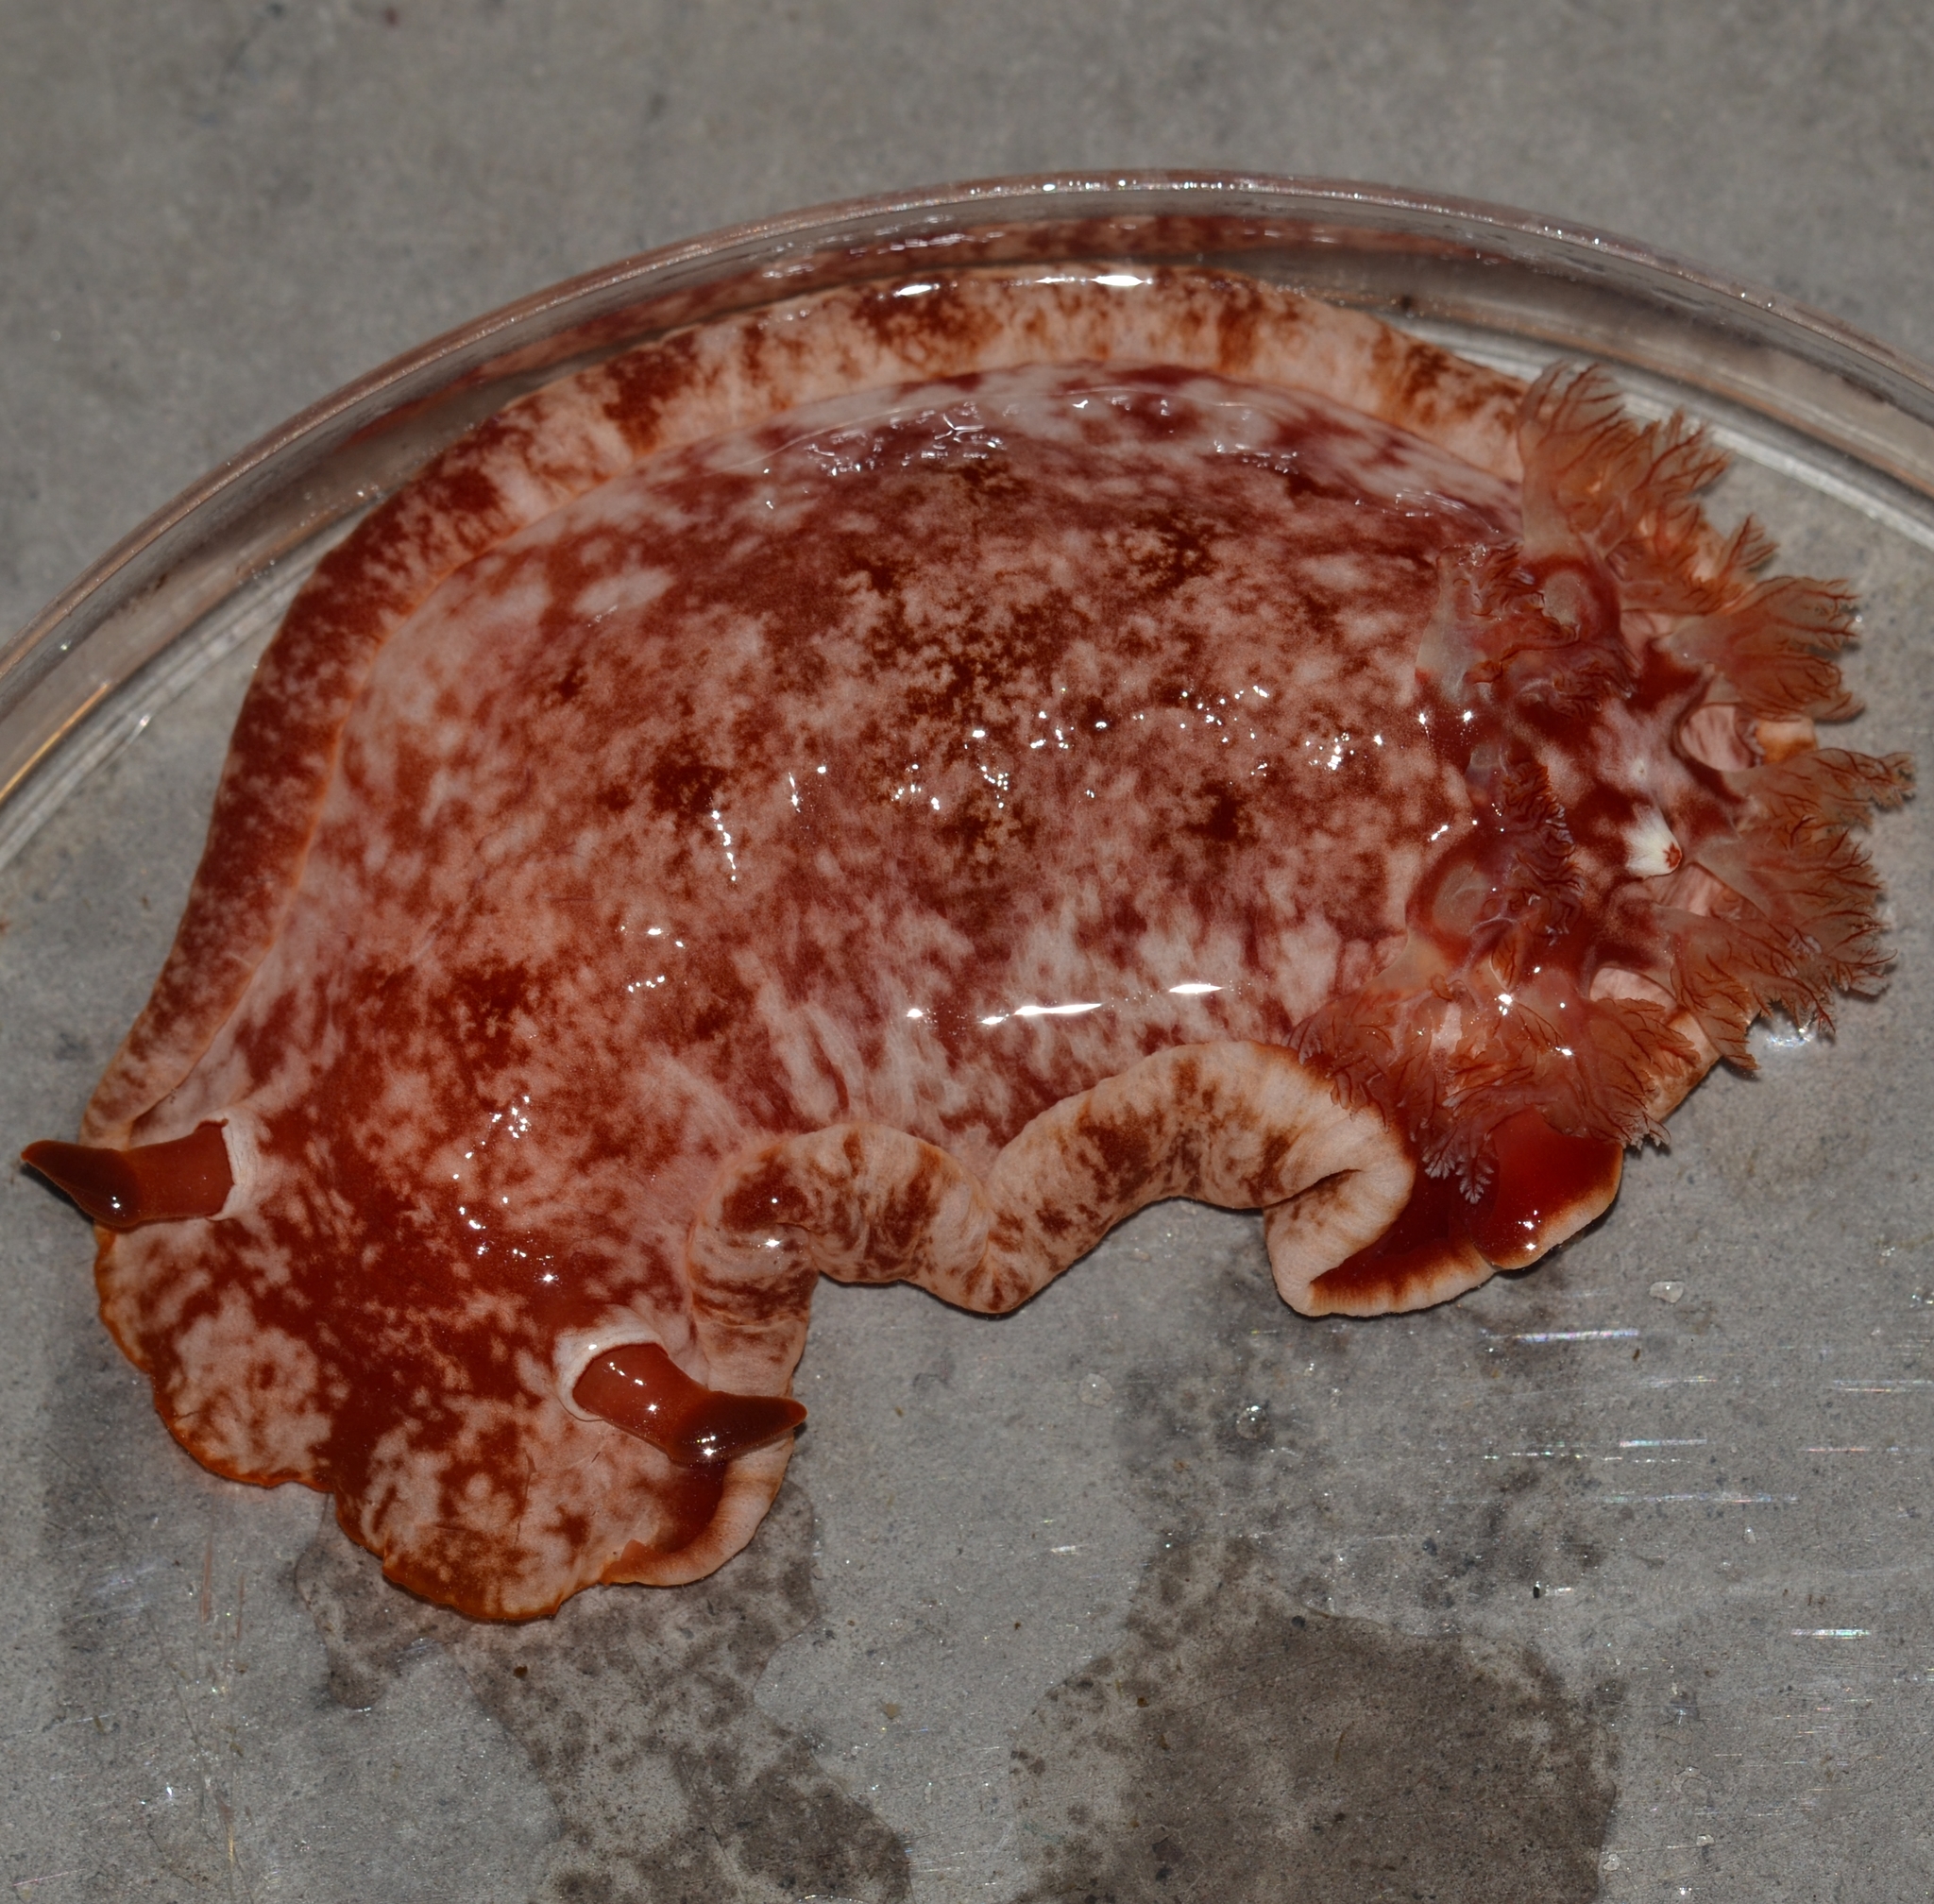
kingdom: Animalia
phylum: Mollusca
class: Gastropoda
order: Nudibranchia
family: Hexabranchidae
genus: Hexabranchus
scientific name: Hexabranchus sandwichensis
